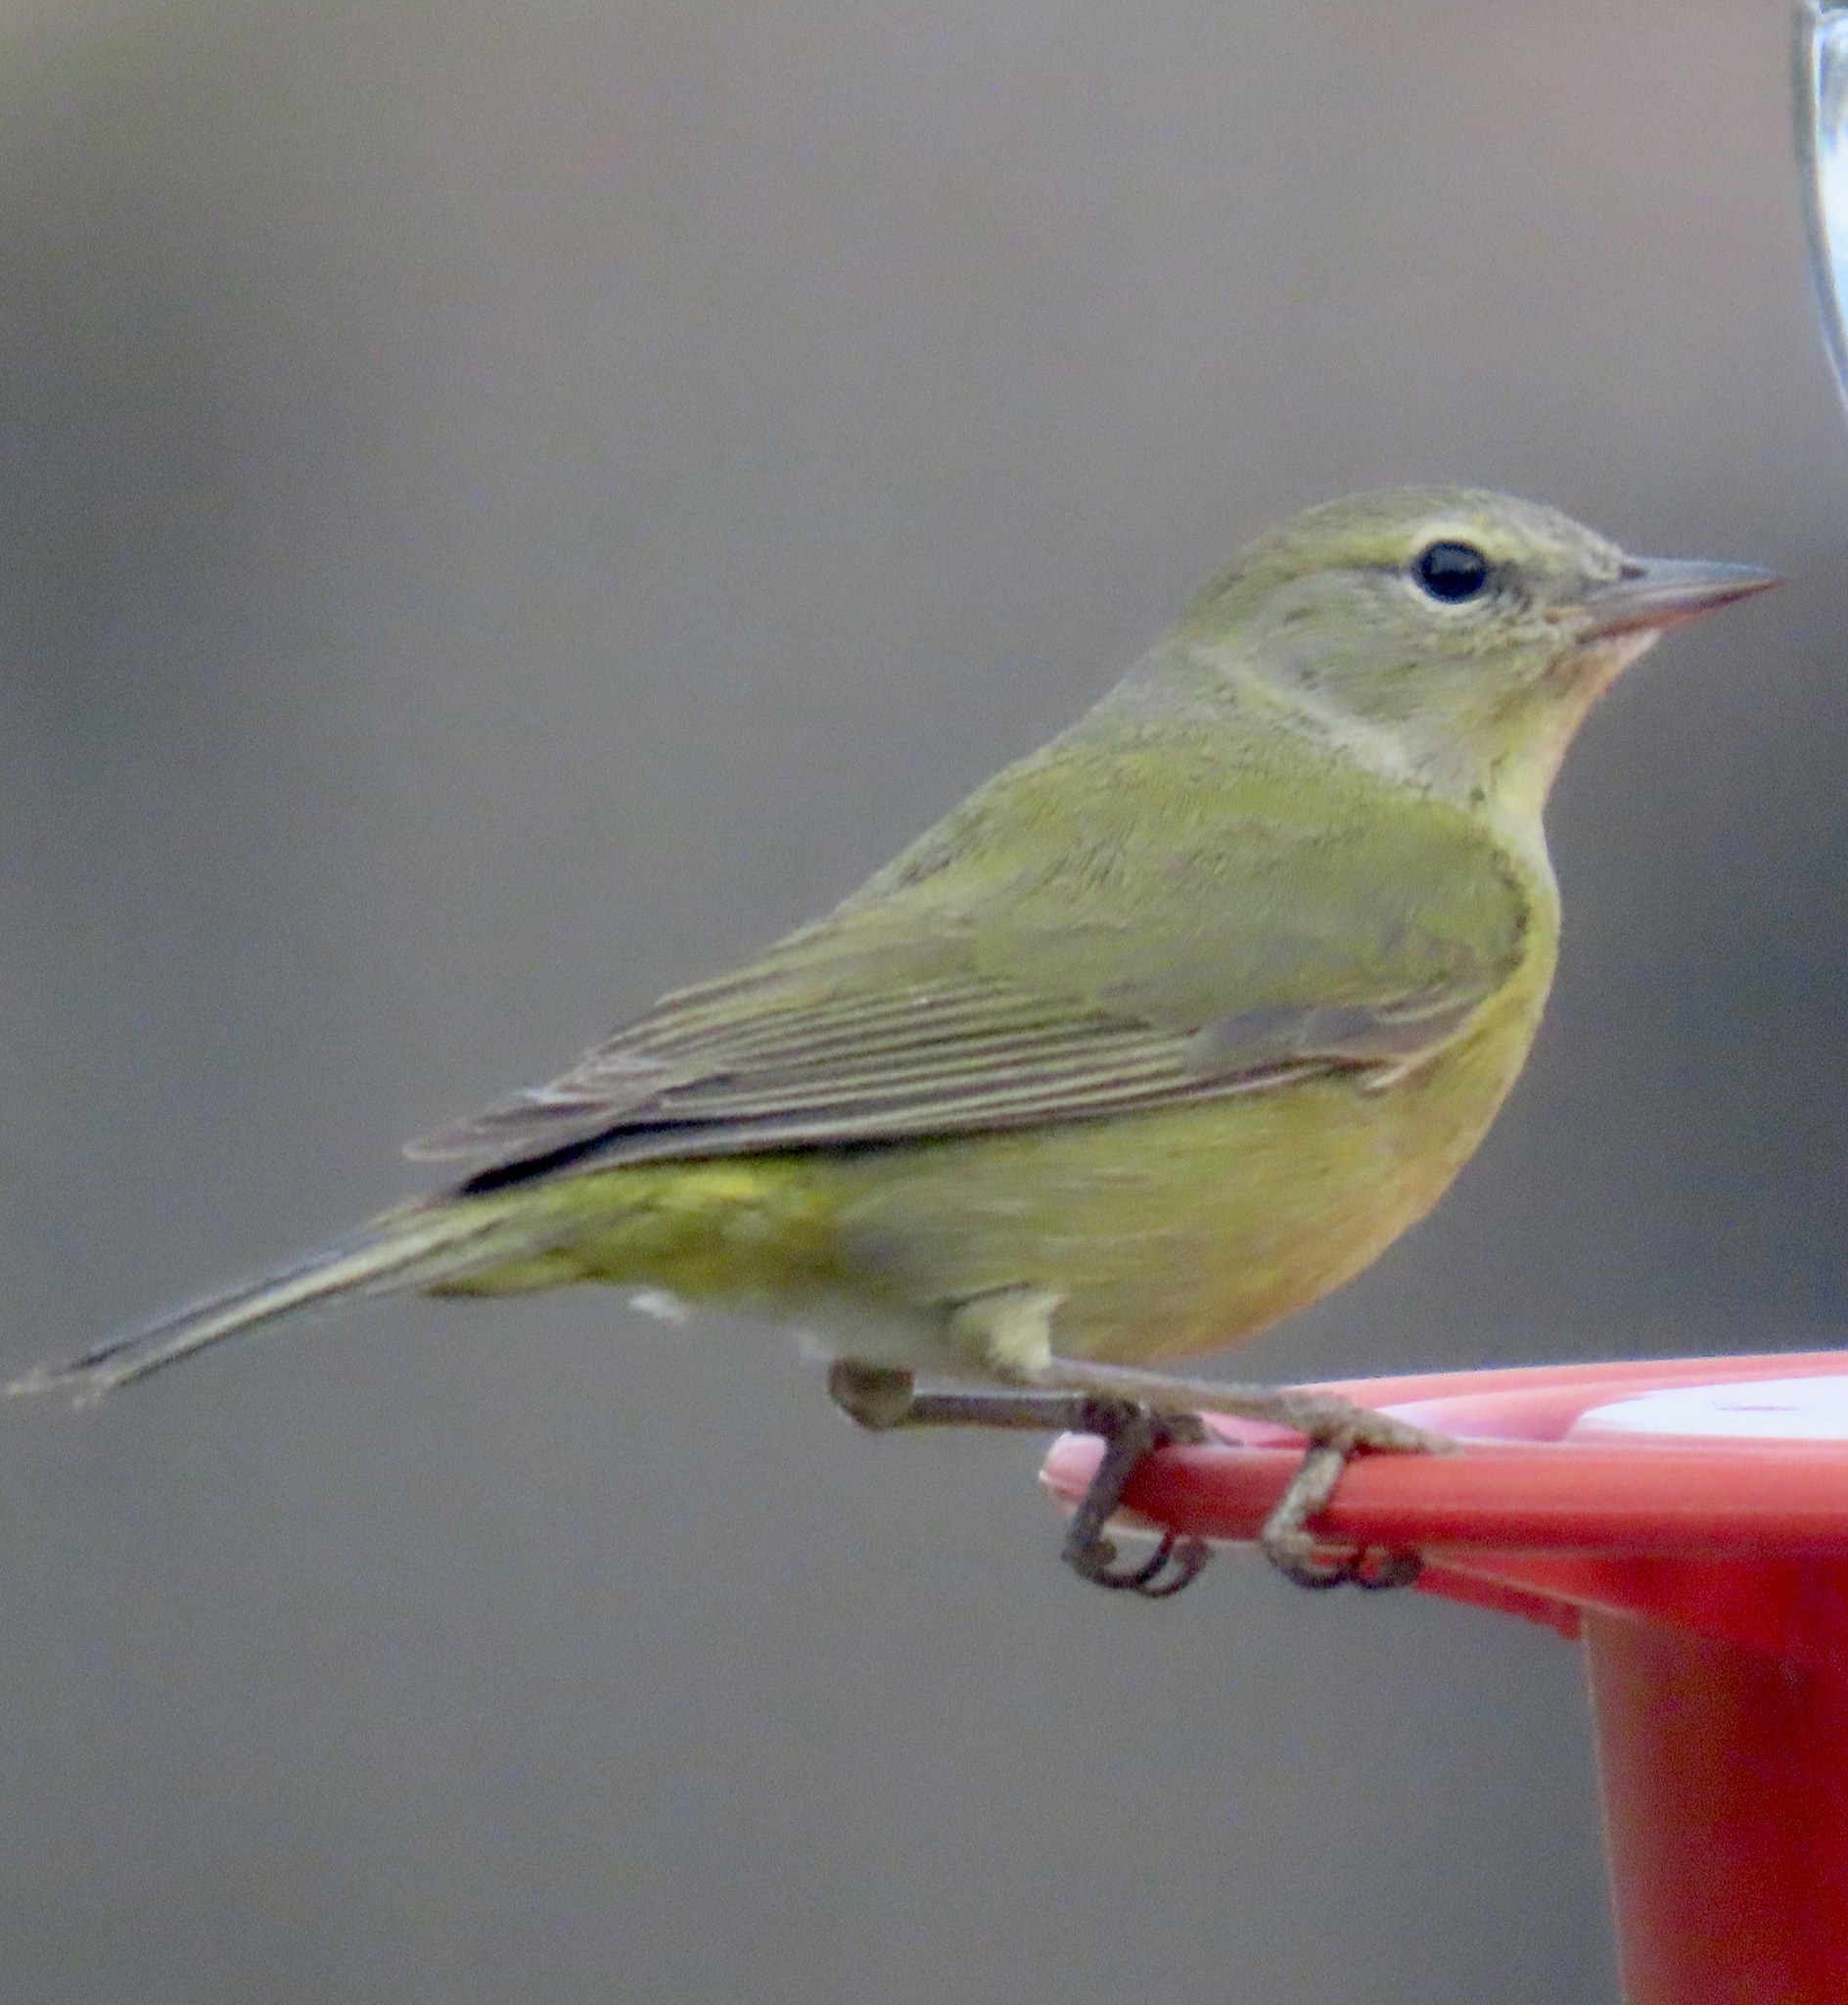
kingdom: Animalia
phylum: Chordata
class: Aves
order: Passeriformes
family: Parulidae
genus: Leiothlypis
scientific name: Leiothlypis celata
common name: Orange-crowned warbler
